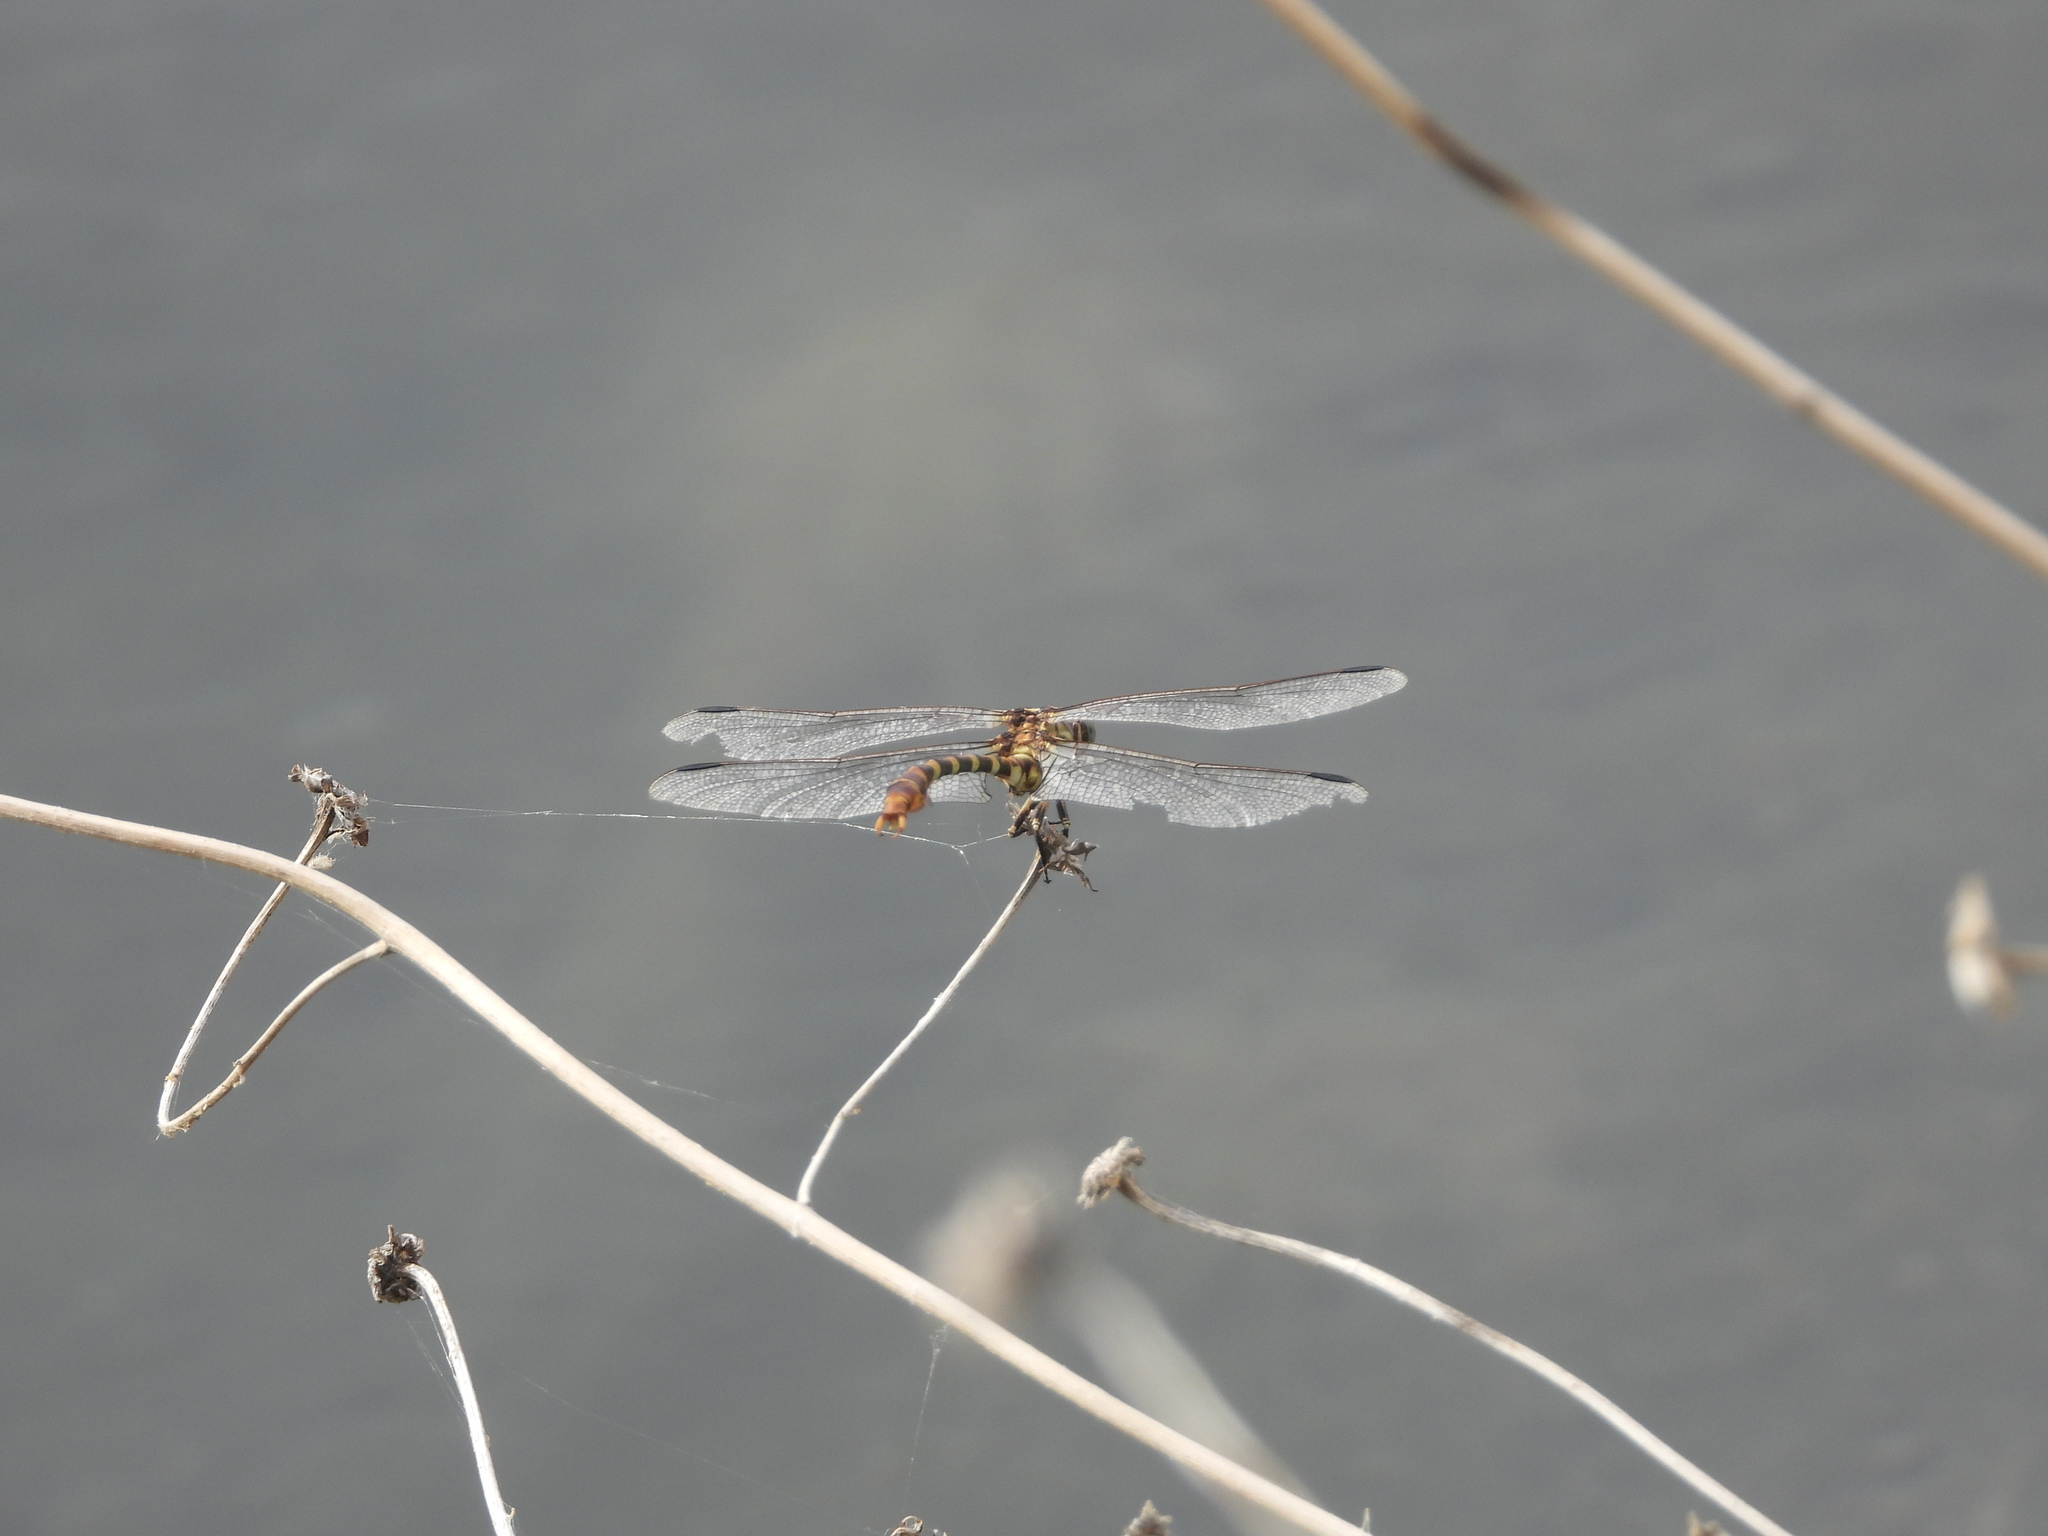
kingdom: Animalia
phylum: Arthropoda
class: Insecta
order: Odonata
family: Gomphidae
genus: Phyllogomphoides
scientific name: Phyllogomphoides stigmatus
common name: Four-striped leaftail
